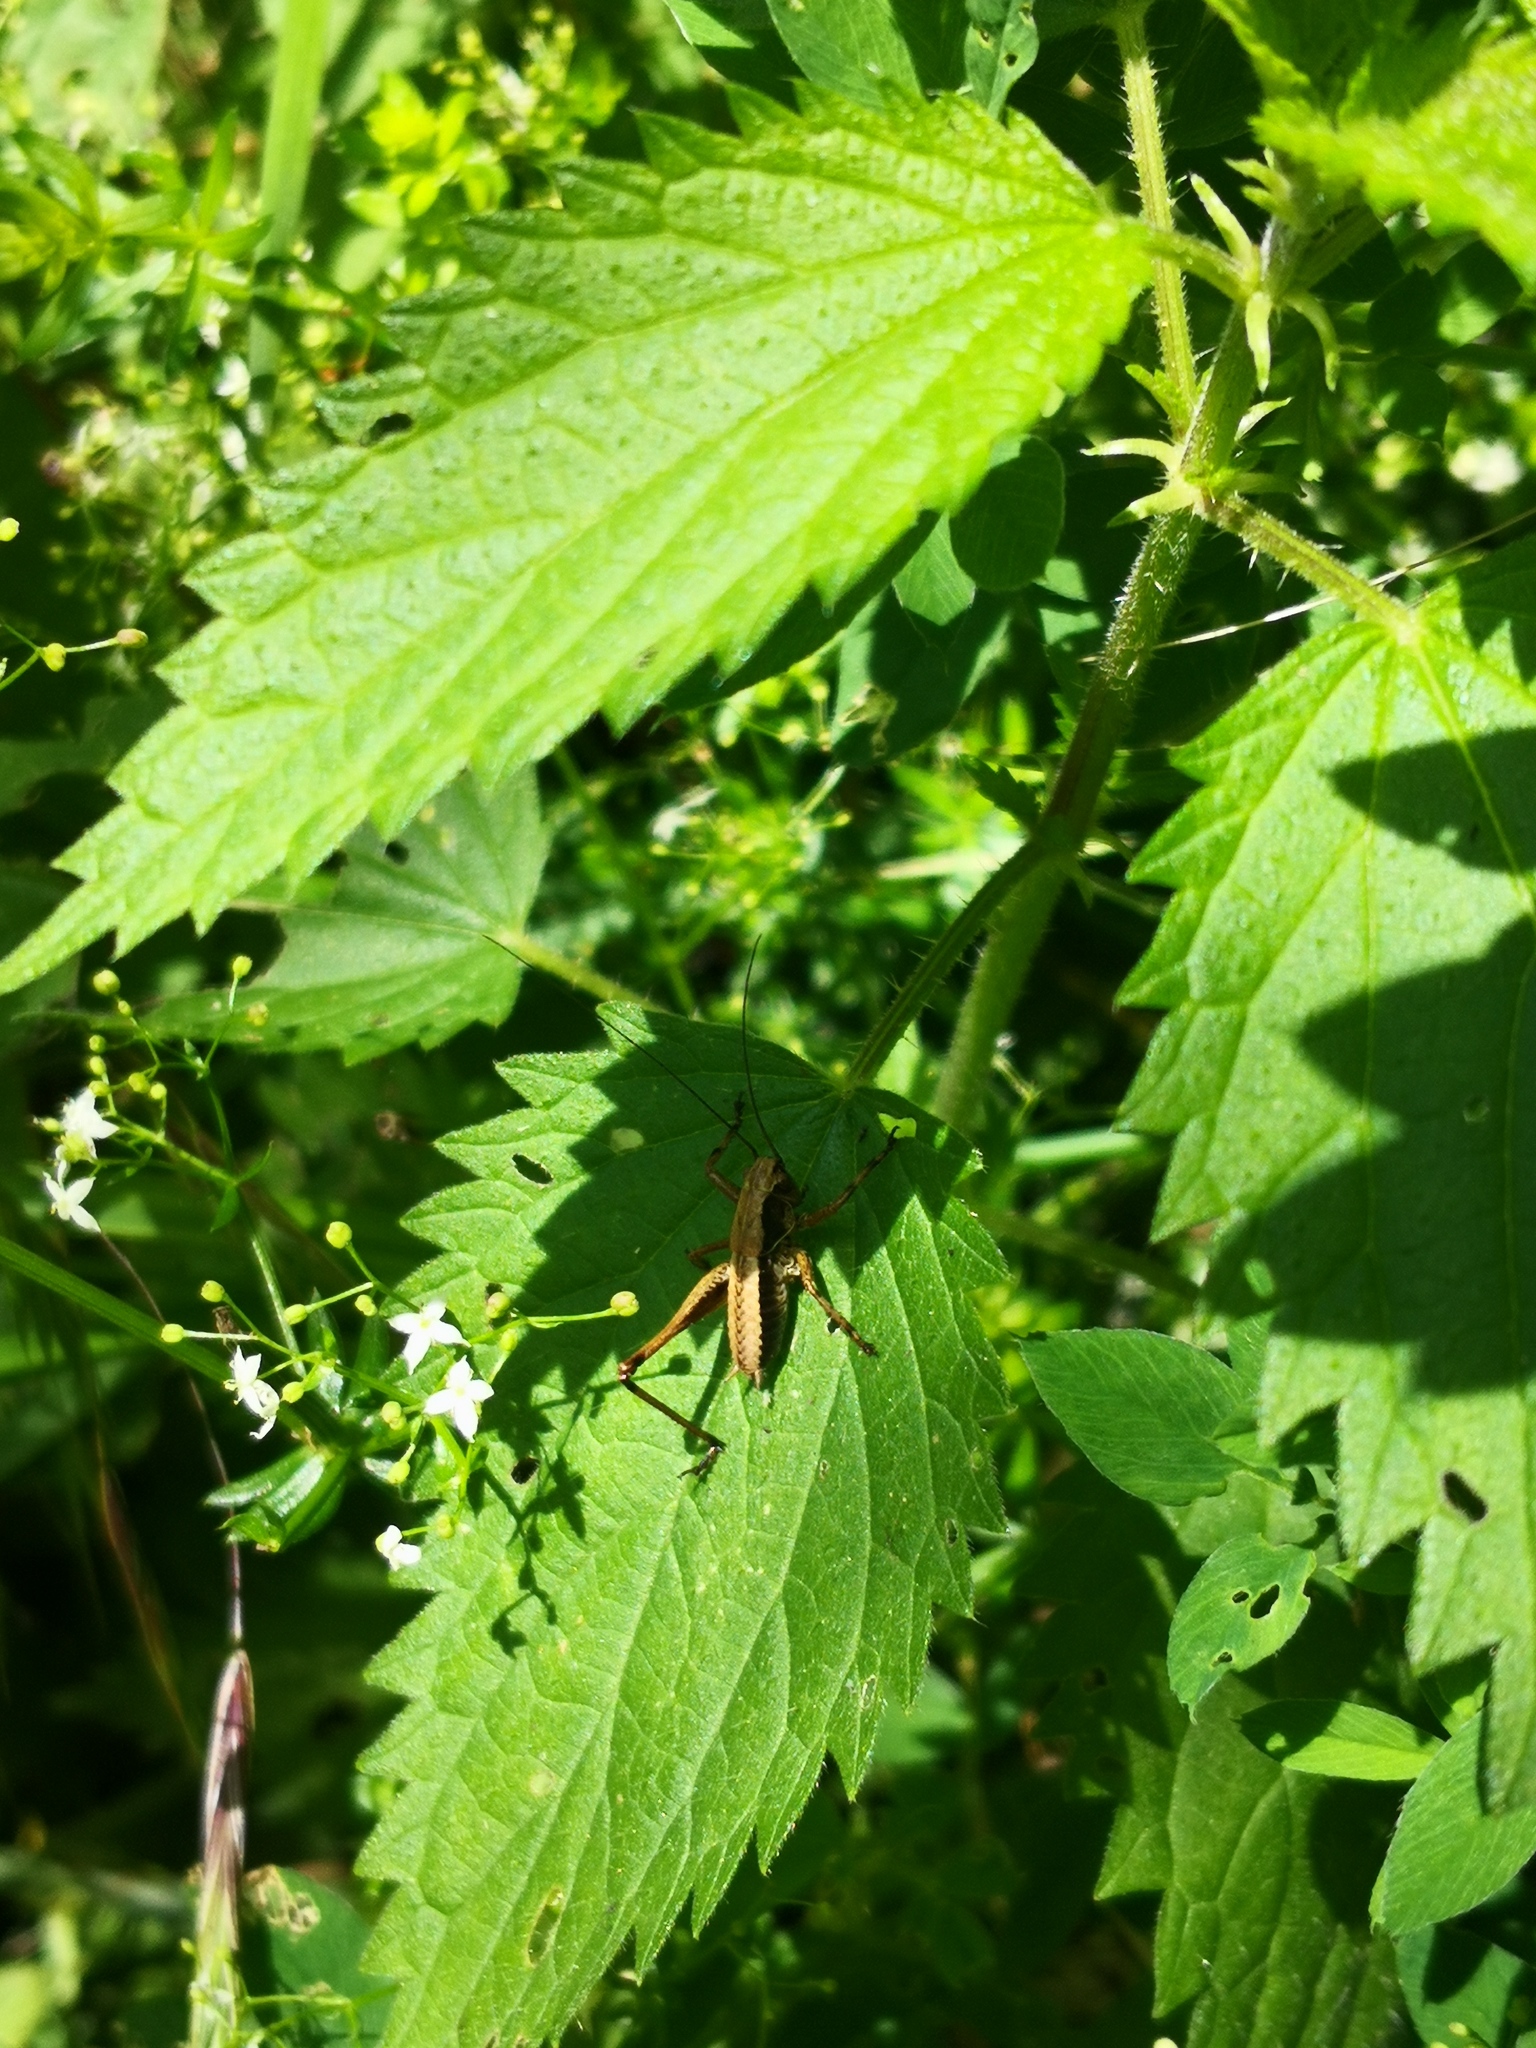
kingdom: Animalia
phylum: Arthropoda
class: Insecta
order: Orthoptera
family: Tettigoniidae
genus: Pholidoptera
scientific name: Pholidoptera griseoaptera
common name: Dark bush-cricket
